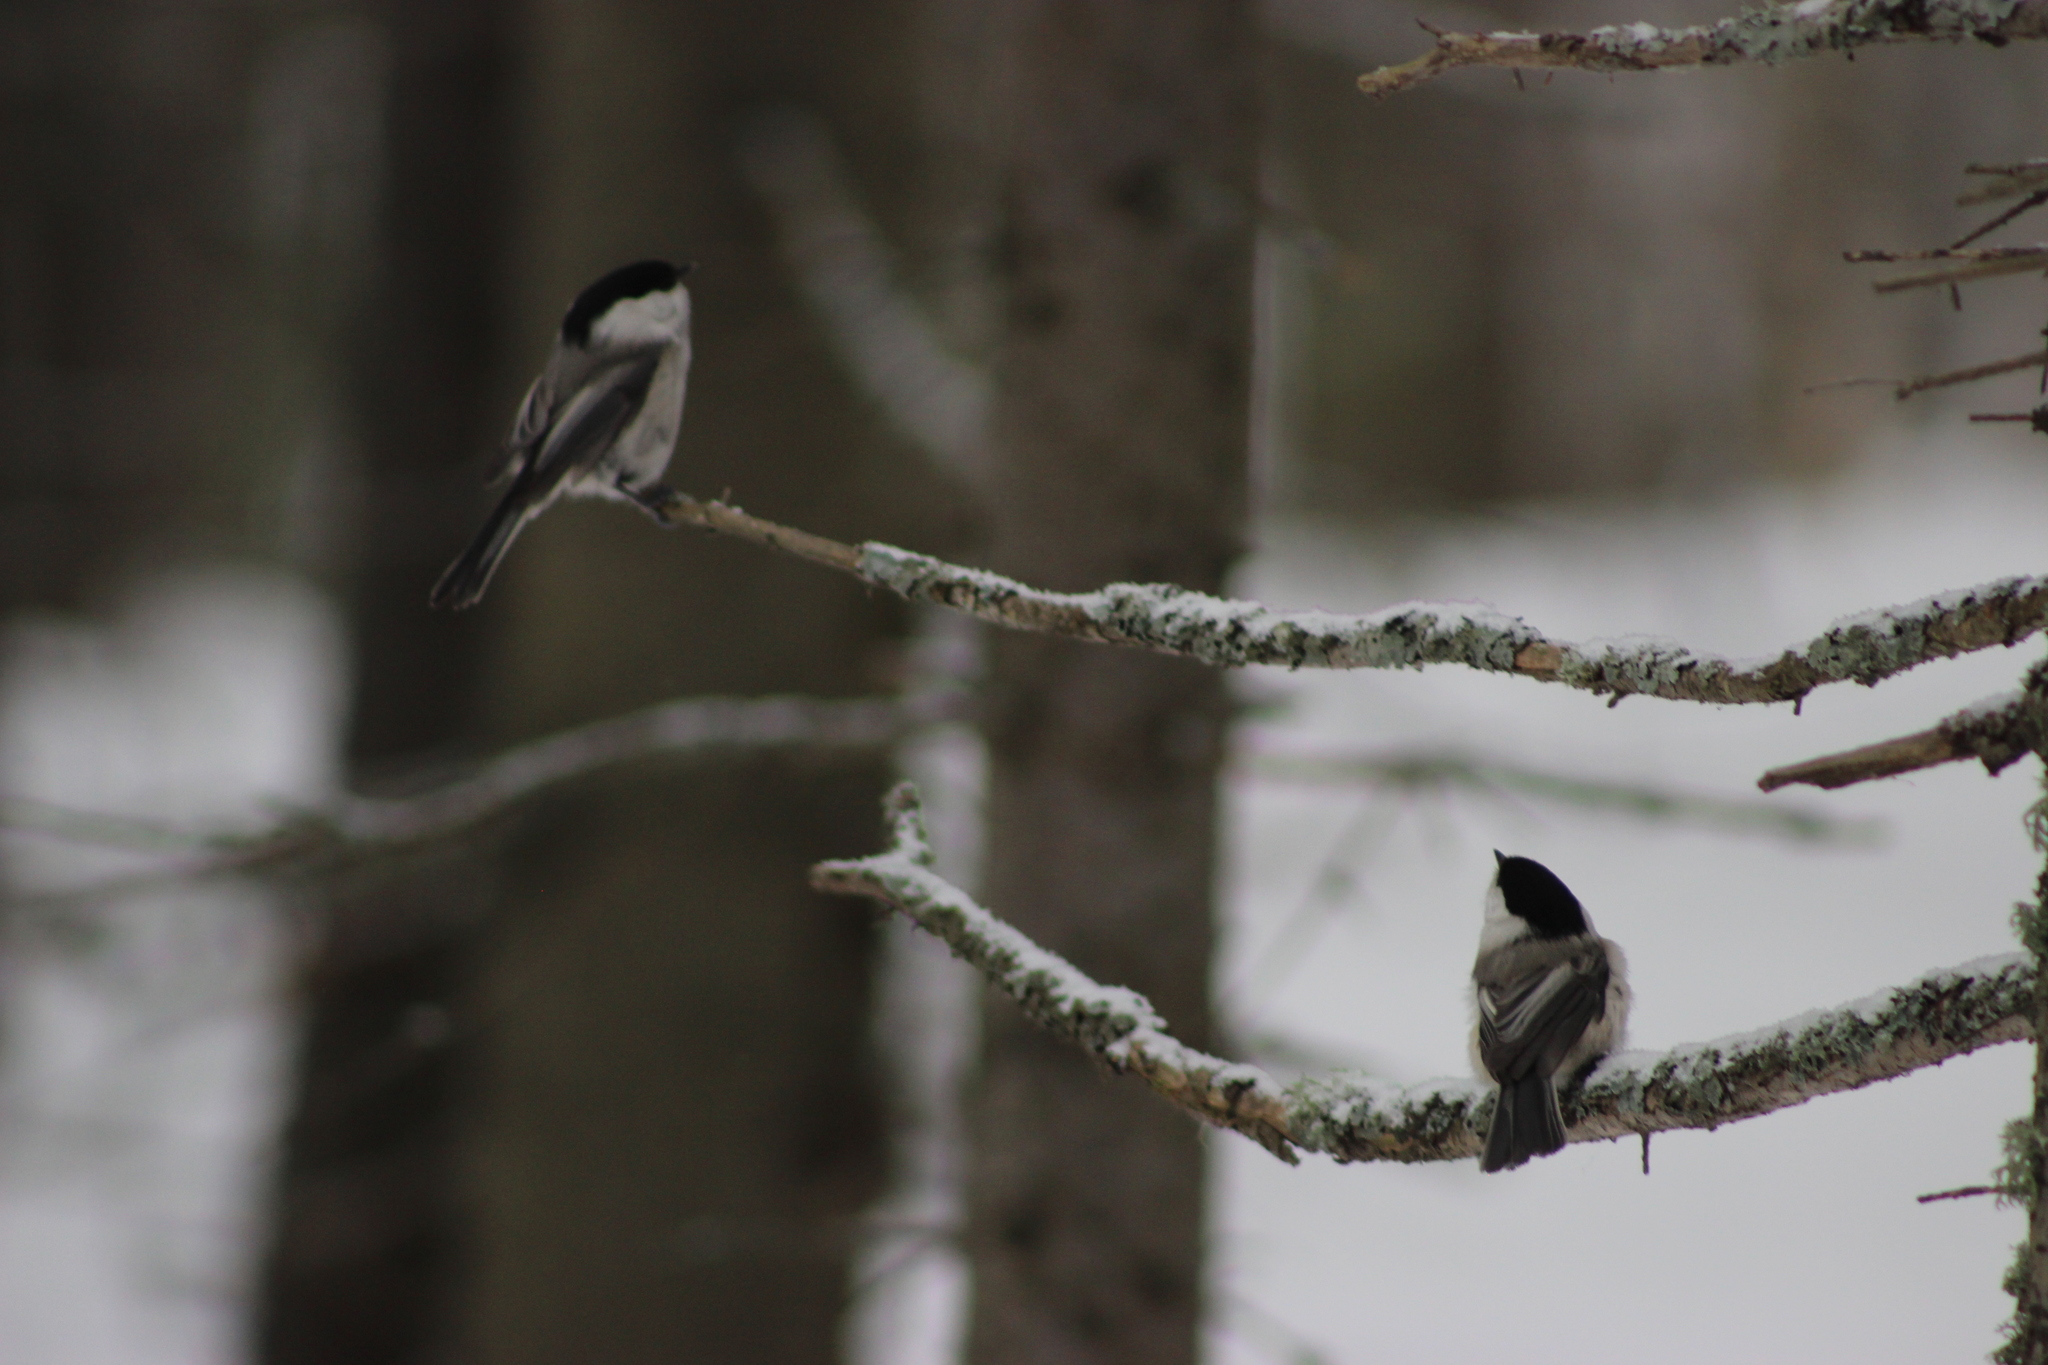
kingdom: Animalia
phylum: Chordata
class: Aves
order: Passeriformes
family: Paridae
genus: Poecile
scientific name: Poecile montanus
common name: Willow tit
